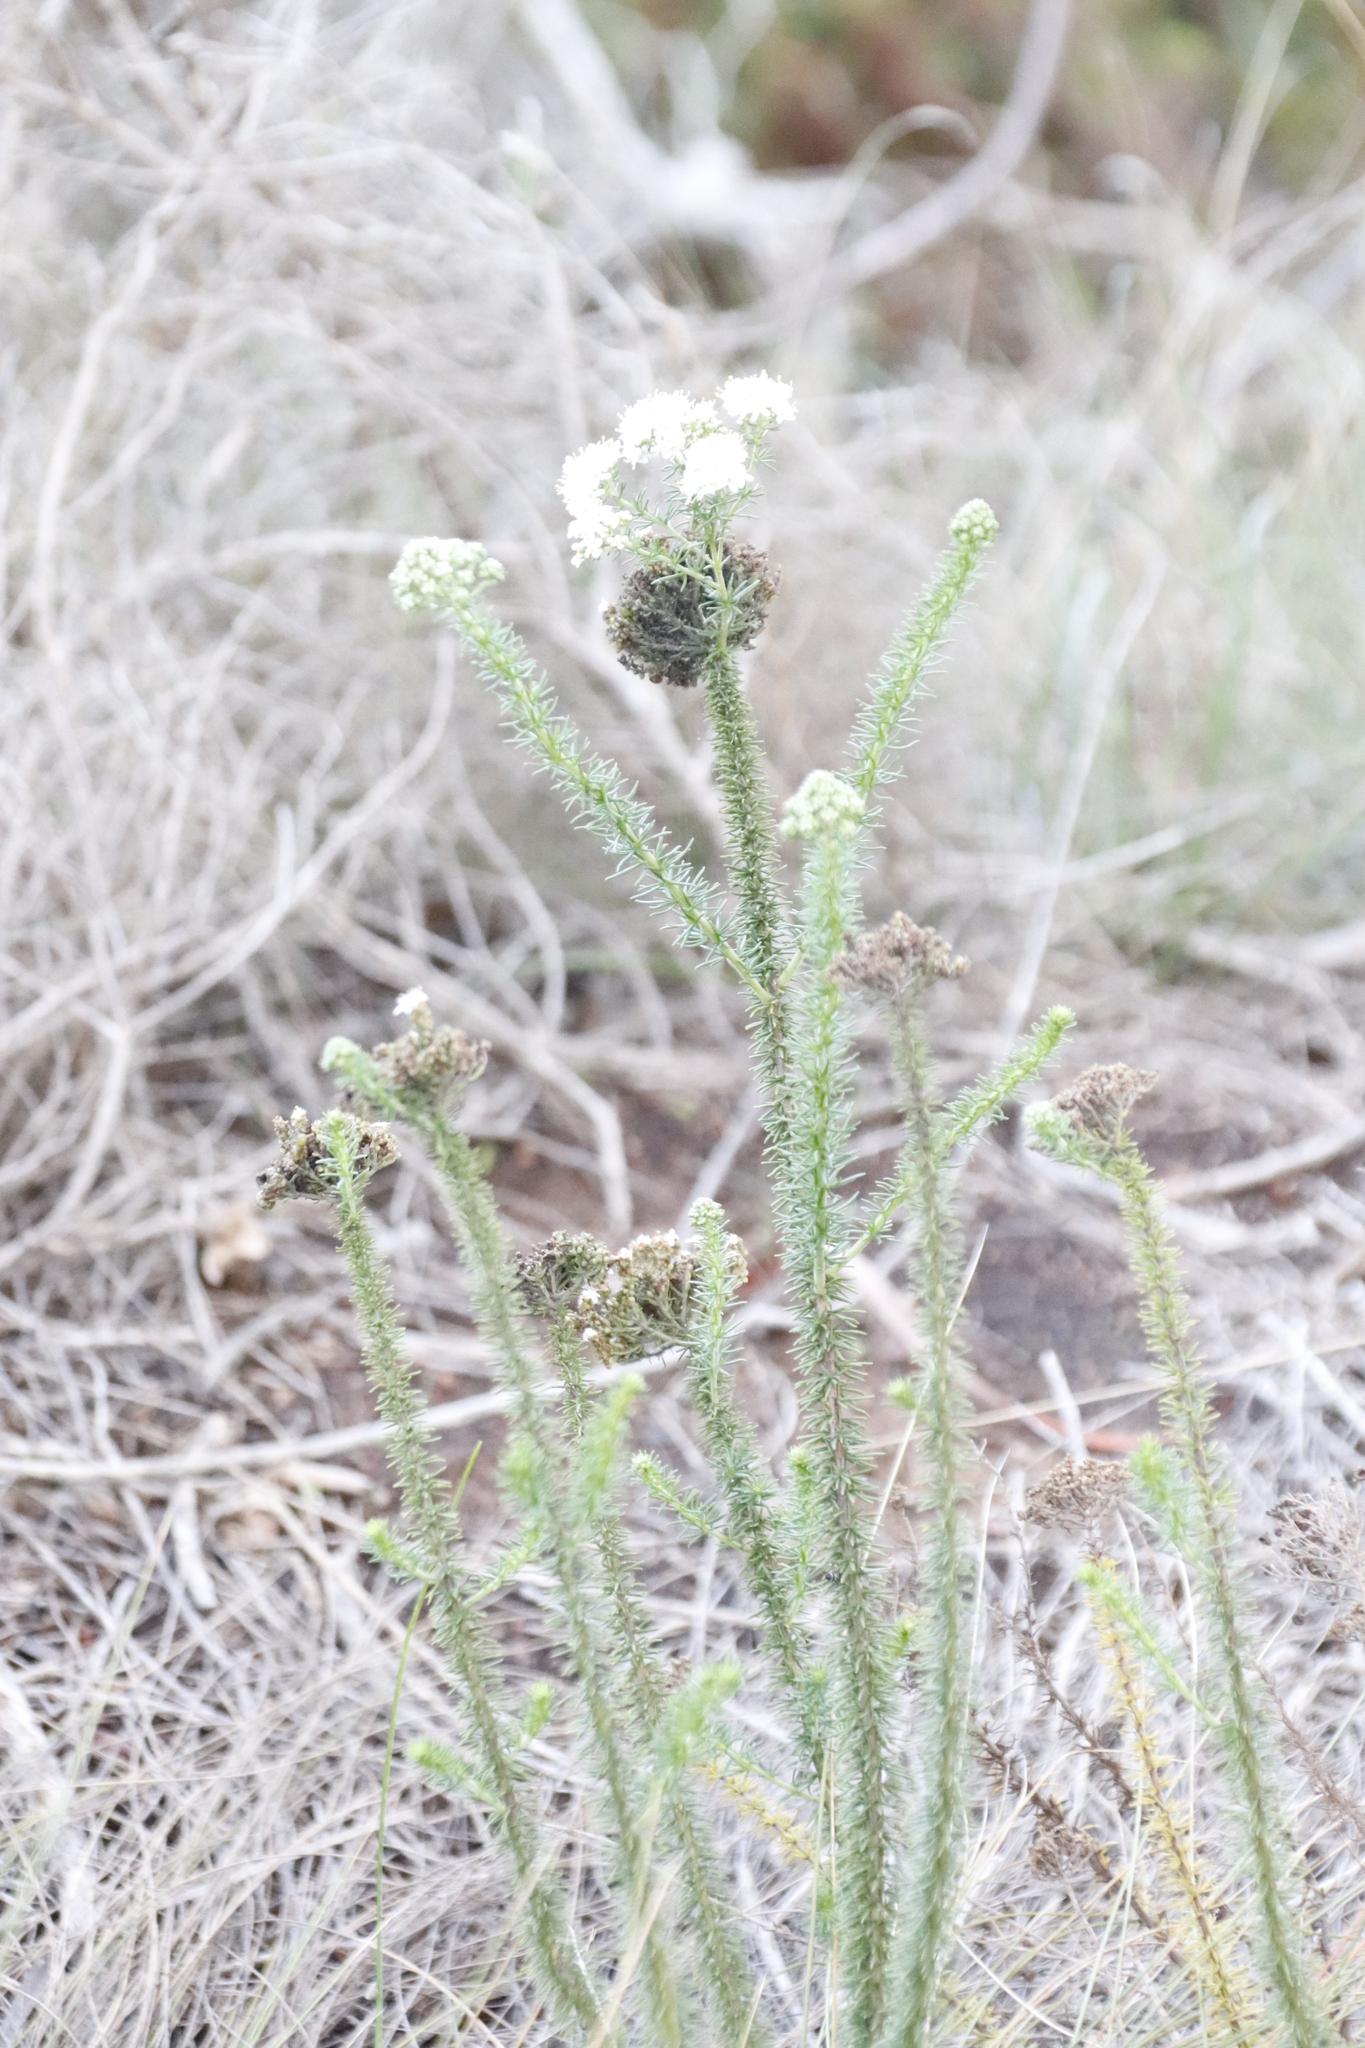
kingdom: Plantae
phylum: Tracheophyta
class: Magnoliopsida
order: Lamiales
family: Scrophulariaceae
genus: Selago
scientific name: Selago corymbosa
